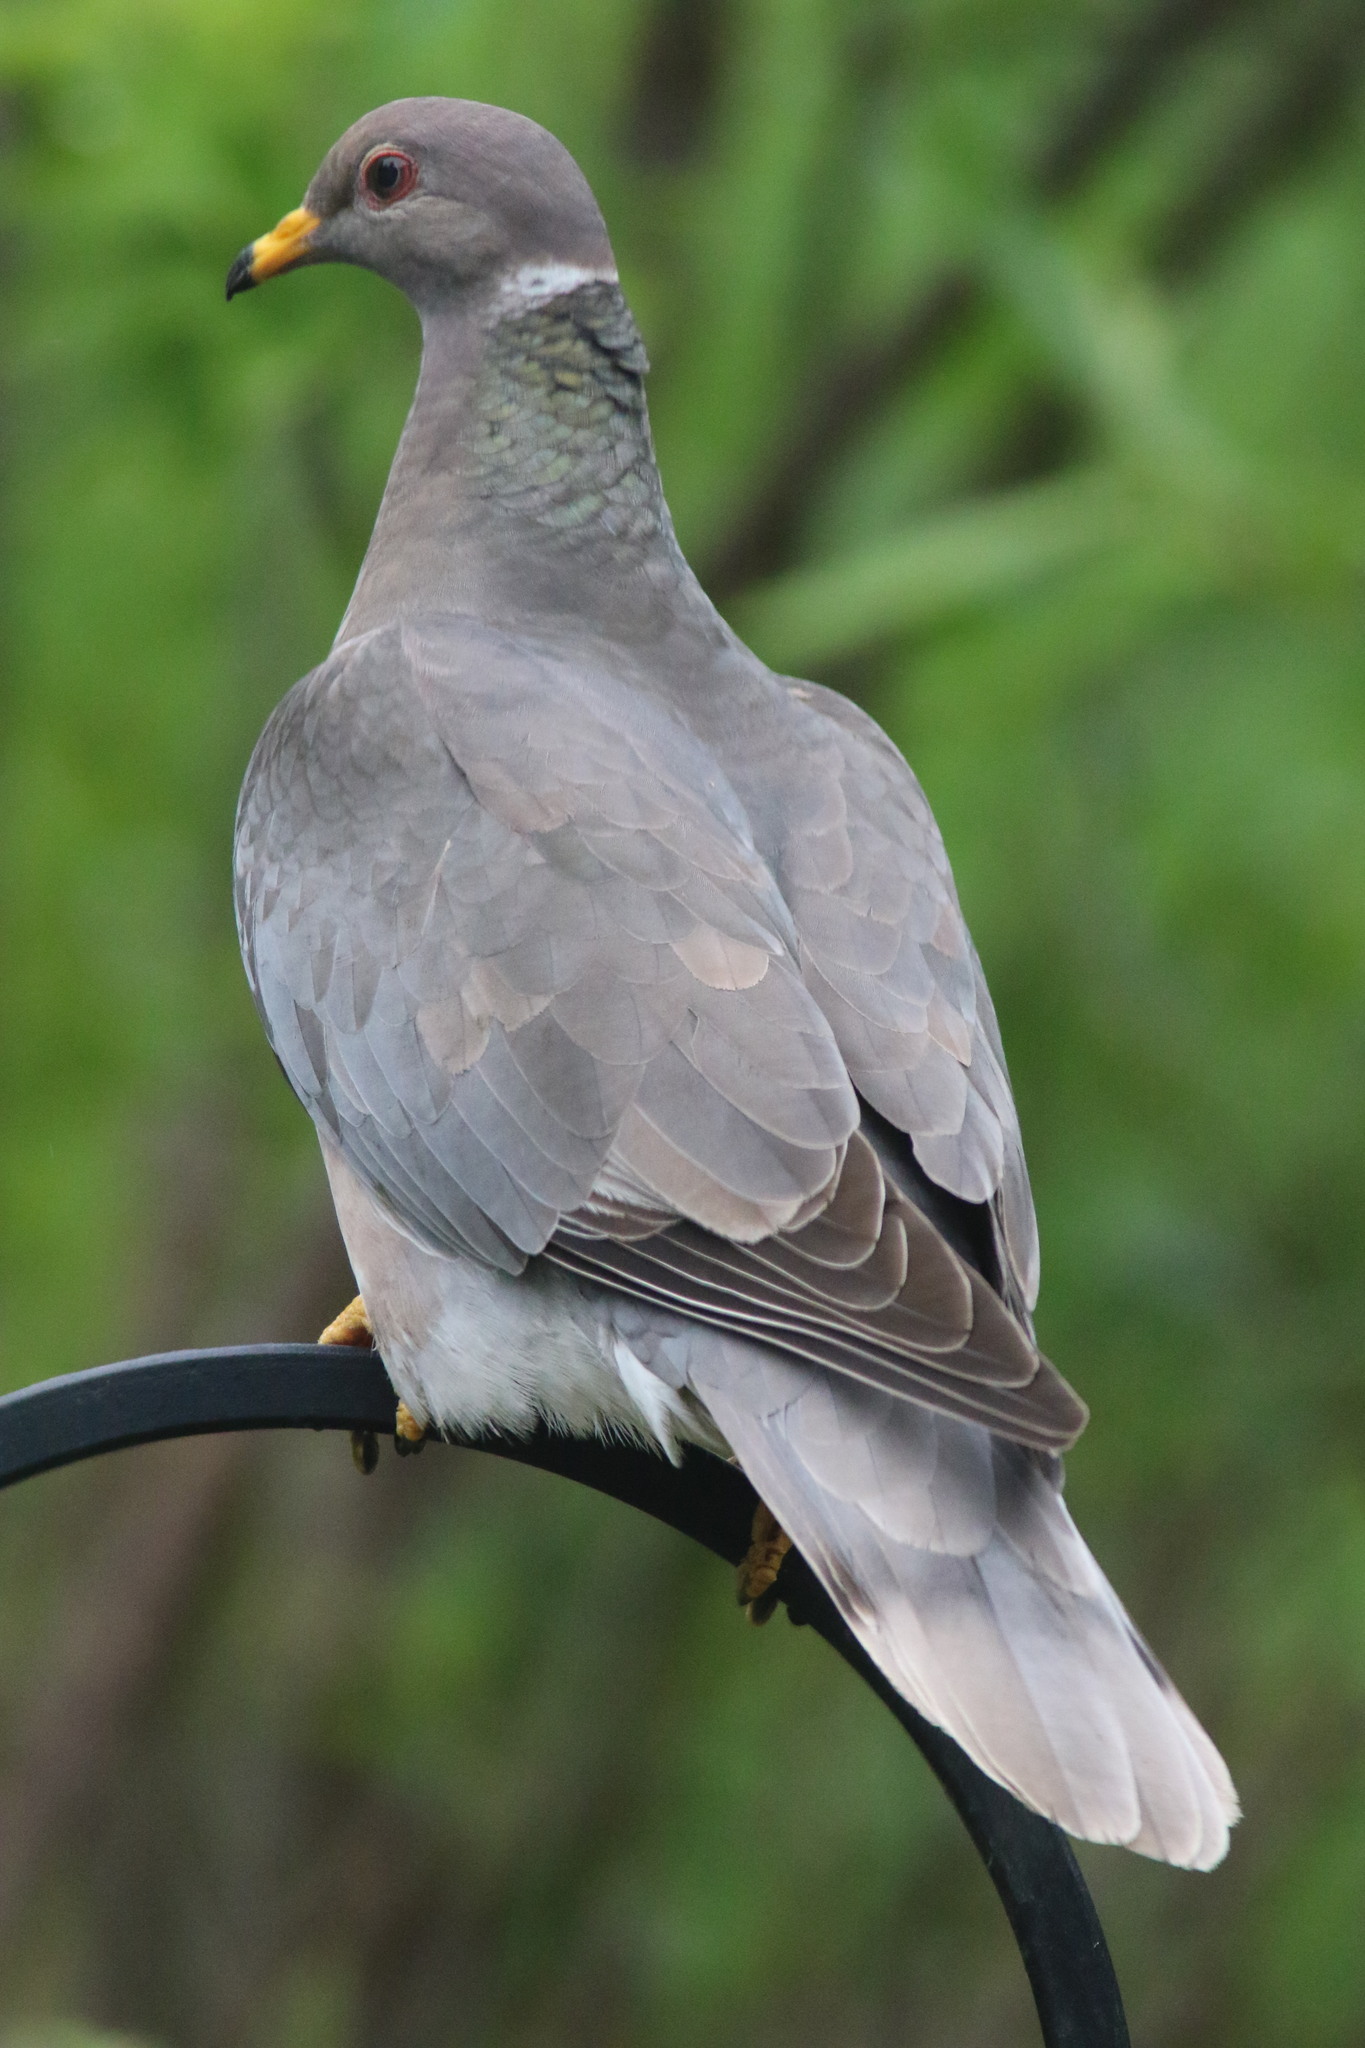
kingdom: Animalia
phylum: Chordata
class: Aves
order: Columbiformes
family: Columbidae
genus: Patagioenas
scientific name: Patagioenas fasciata
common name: Band-tailed pigeon
